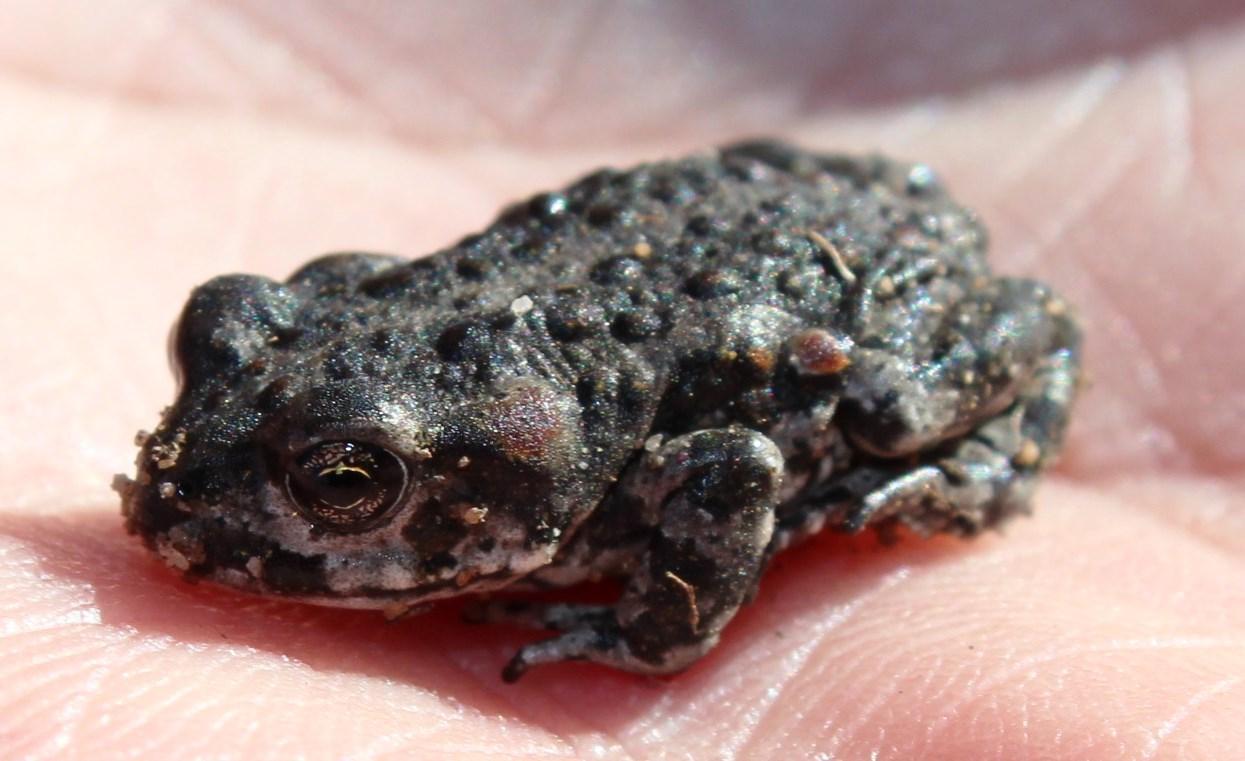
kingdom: Animalia
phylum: Chordata
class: Amphibia
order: Anura
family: Bufonidae
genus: Capensibufo
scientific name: Capensibufo tradouwi
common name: Tradouw mountain toadlet
